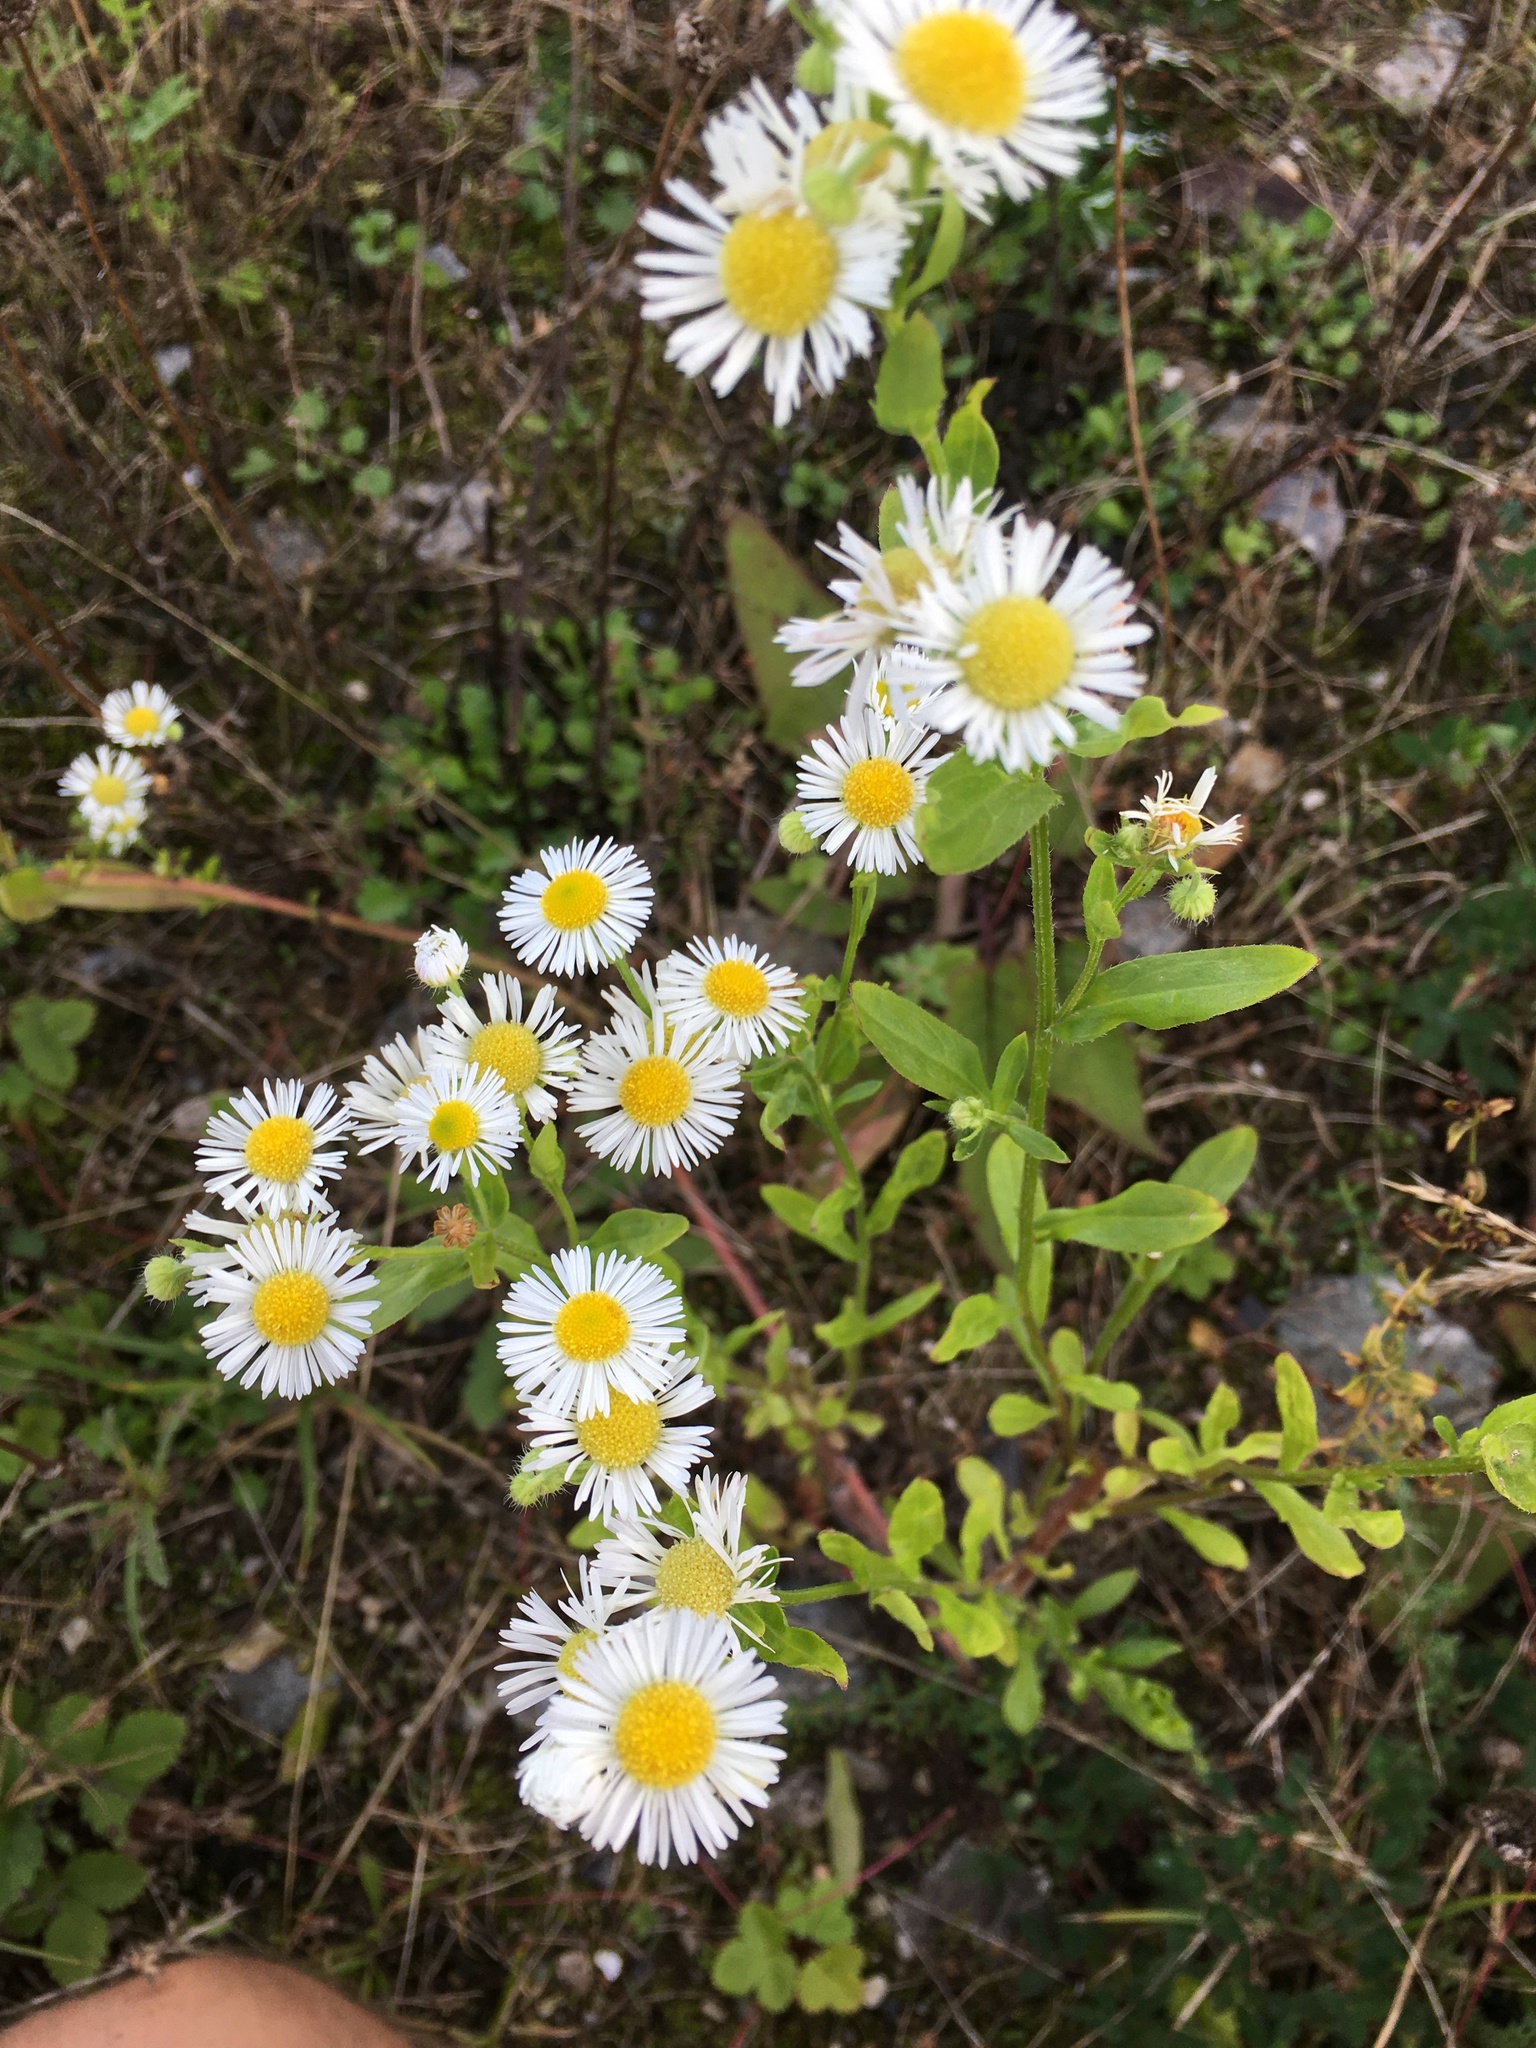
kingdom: Plantae
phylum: Tracheophyta
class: Magnoliopsida
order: Asterales
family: Asteraceae
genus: Erigeron
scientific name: Erigeron annuus
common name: Tall fleabane
